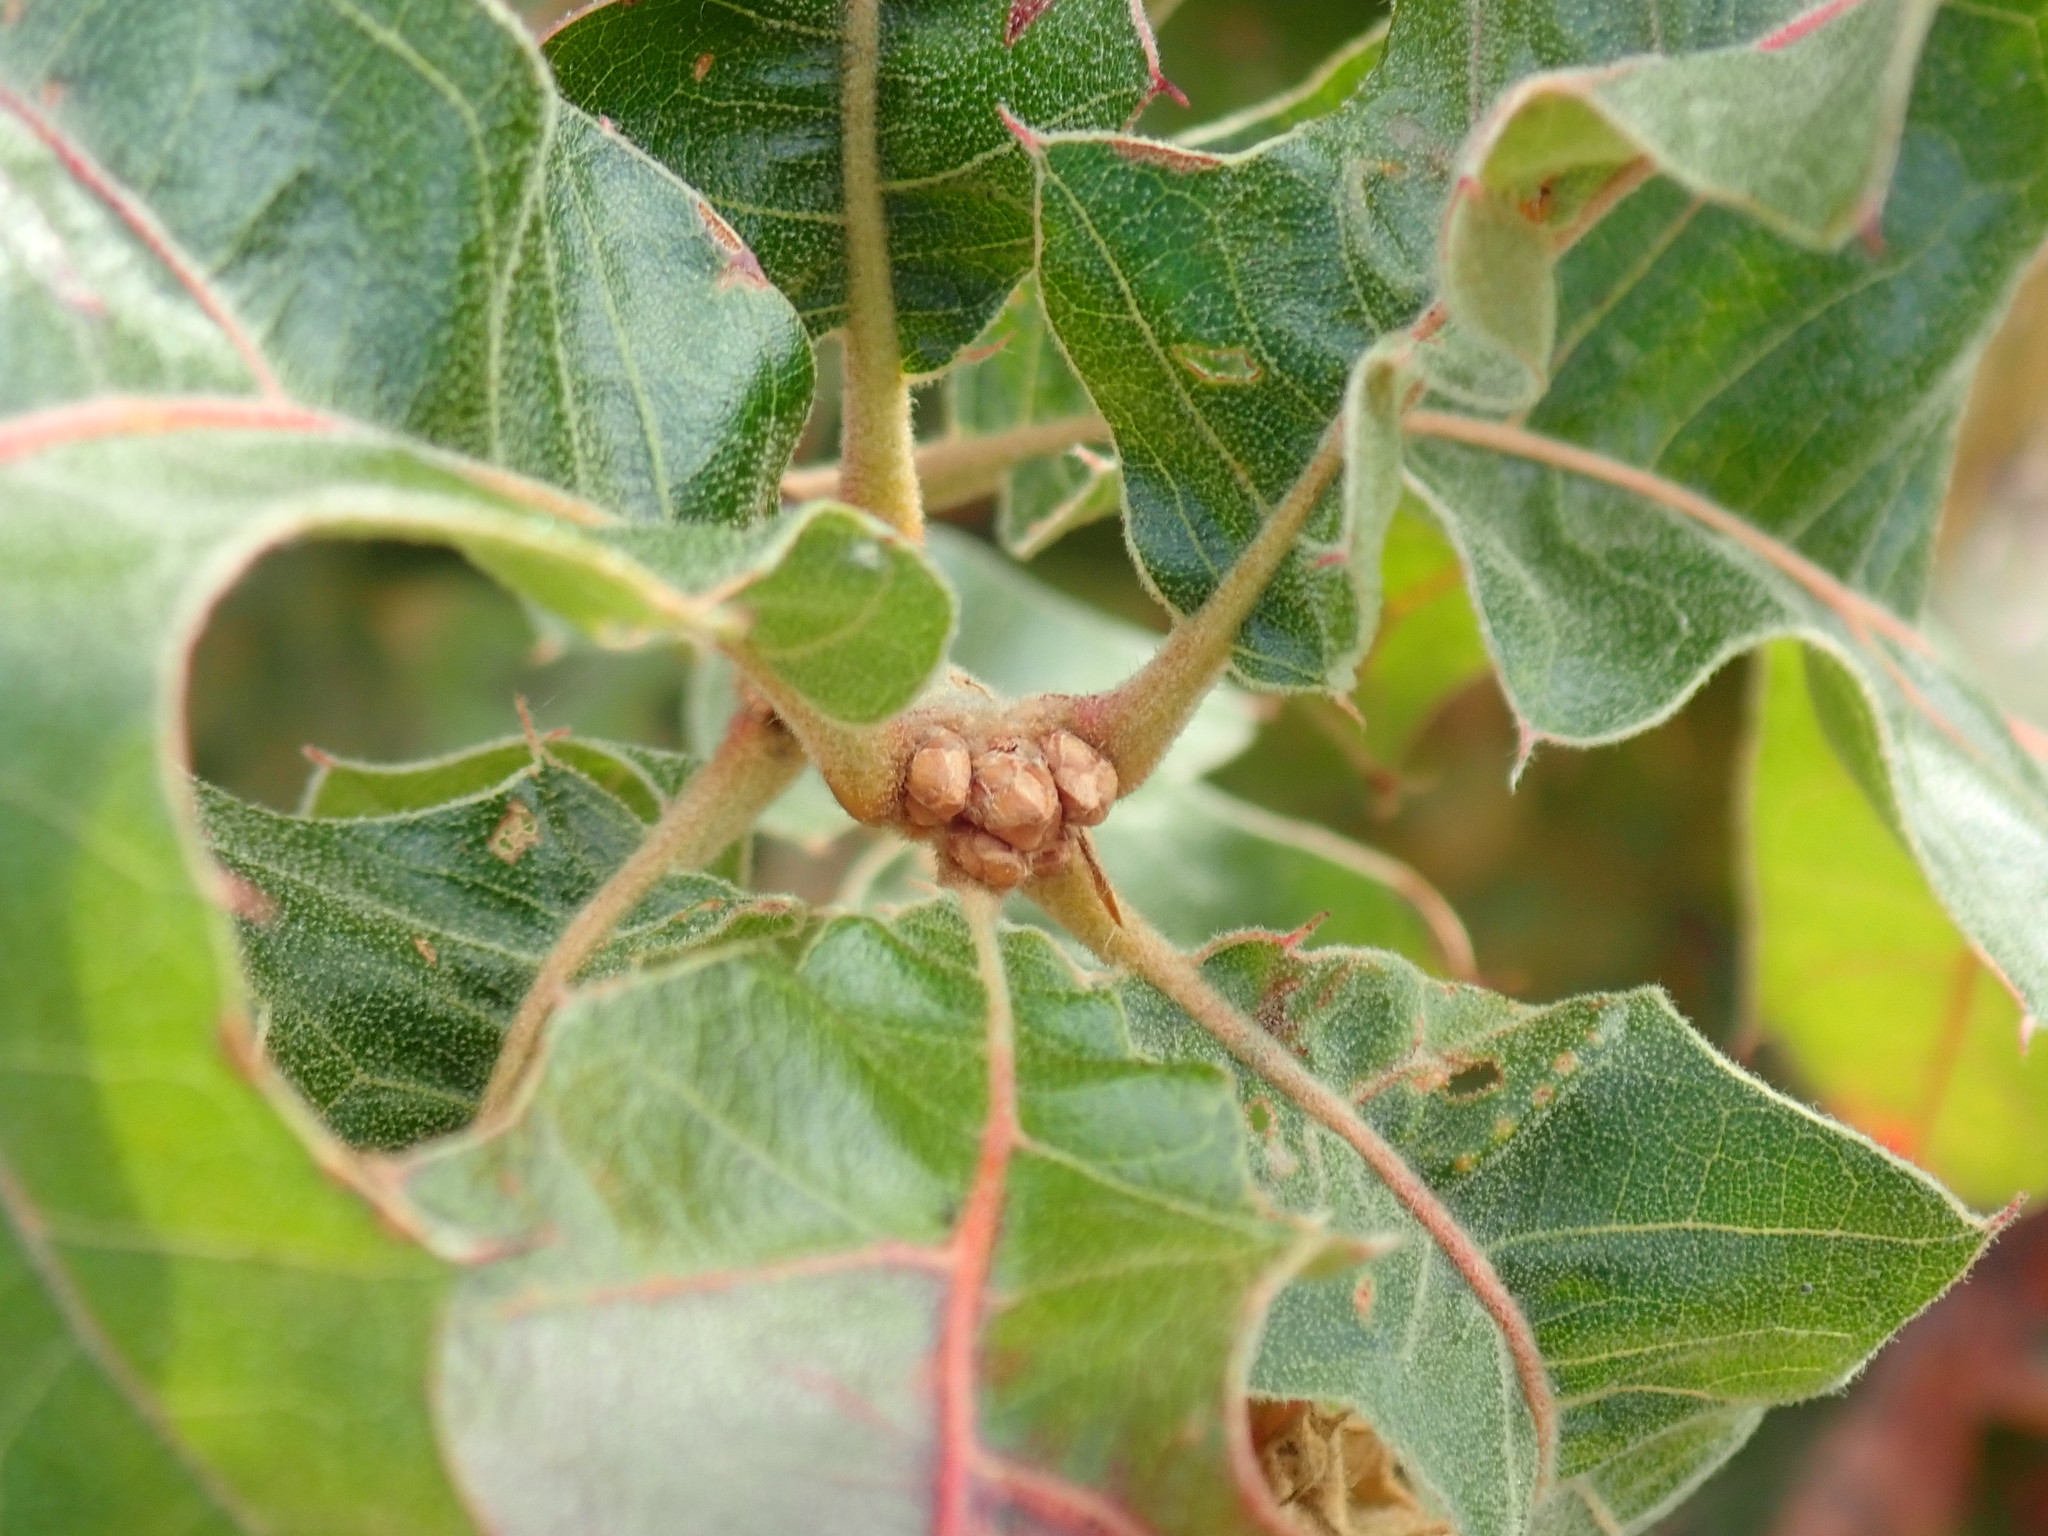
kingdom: Plantae
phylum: Tracheophyta
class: Magnoliopsida
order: Fagales
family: Fagaceae
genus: Quercus
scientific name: Quercus ilicifolia
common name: Bear oak
